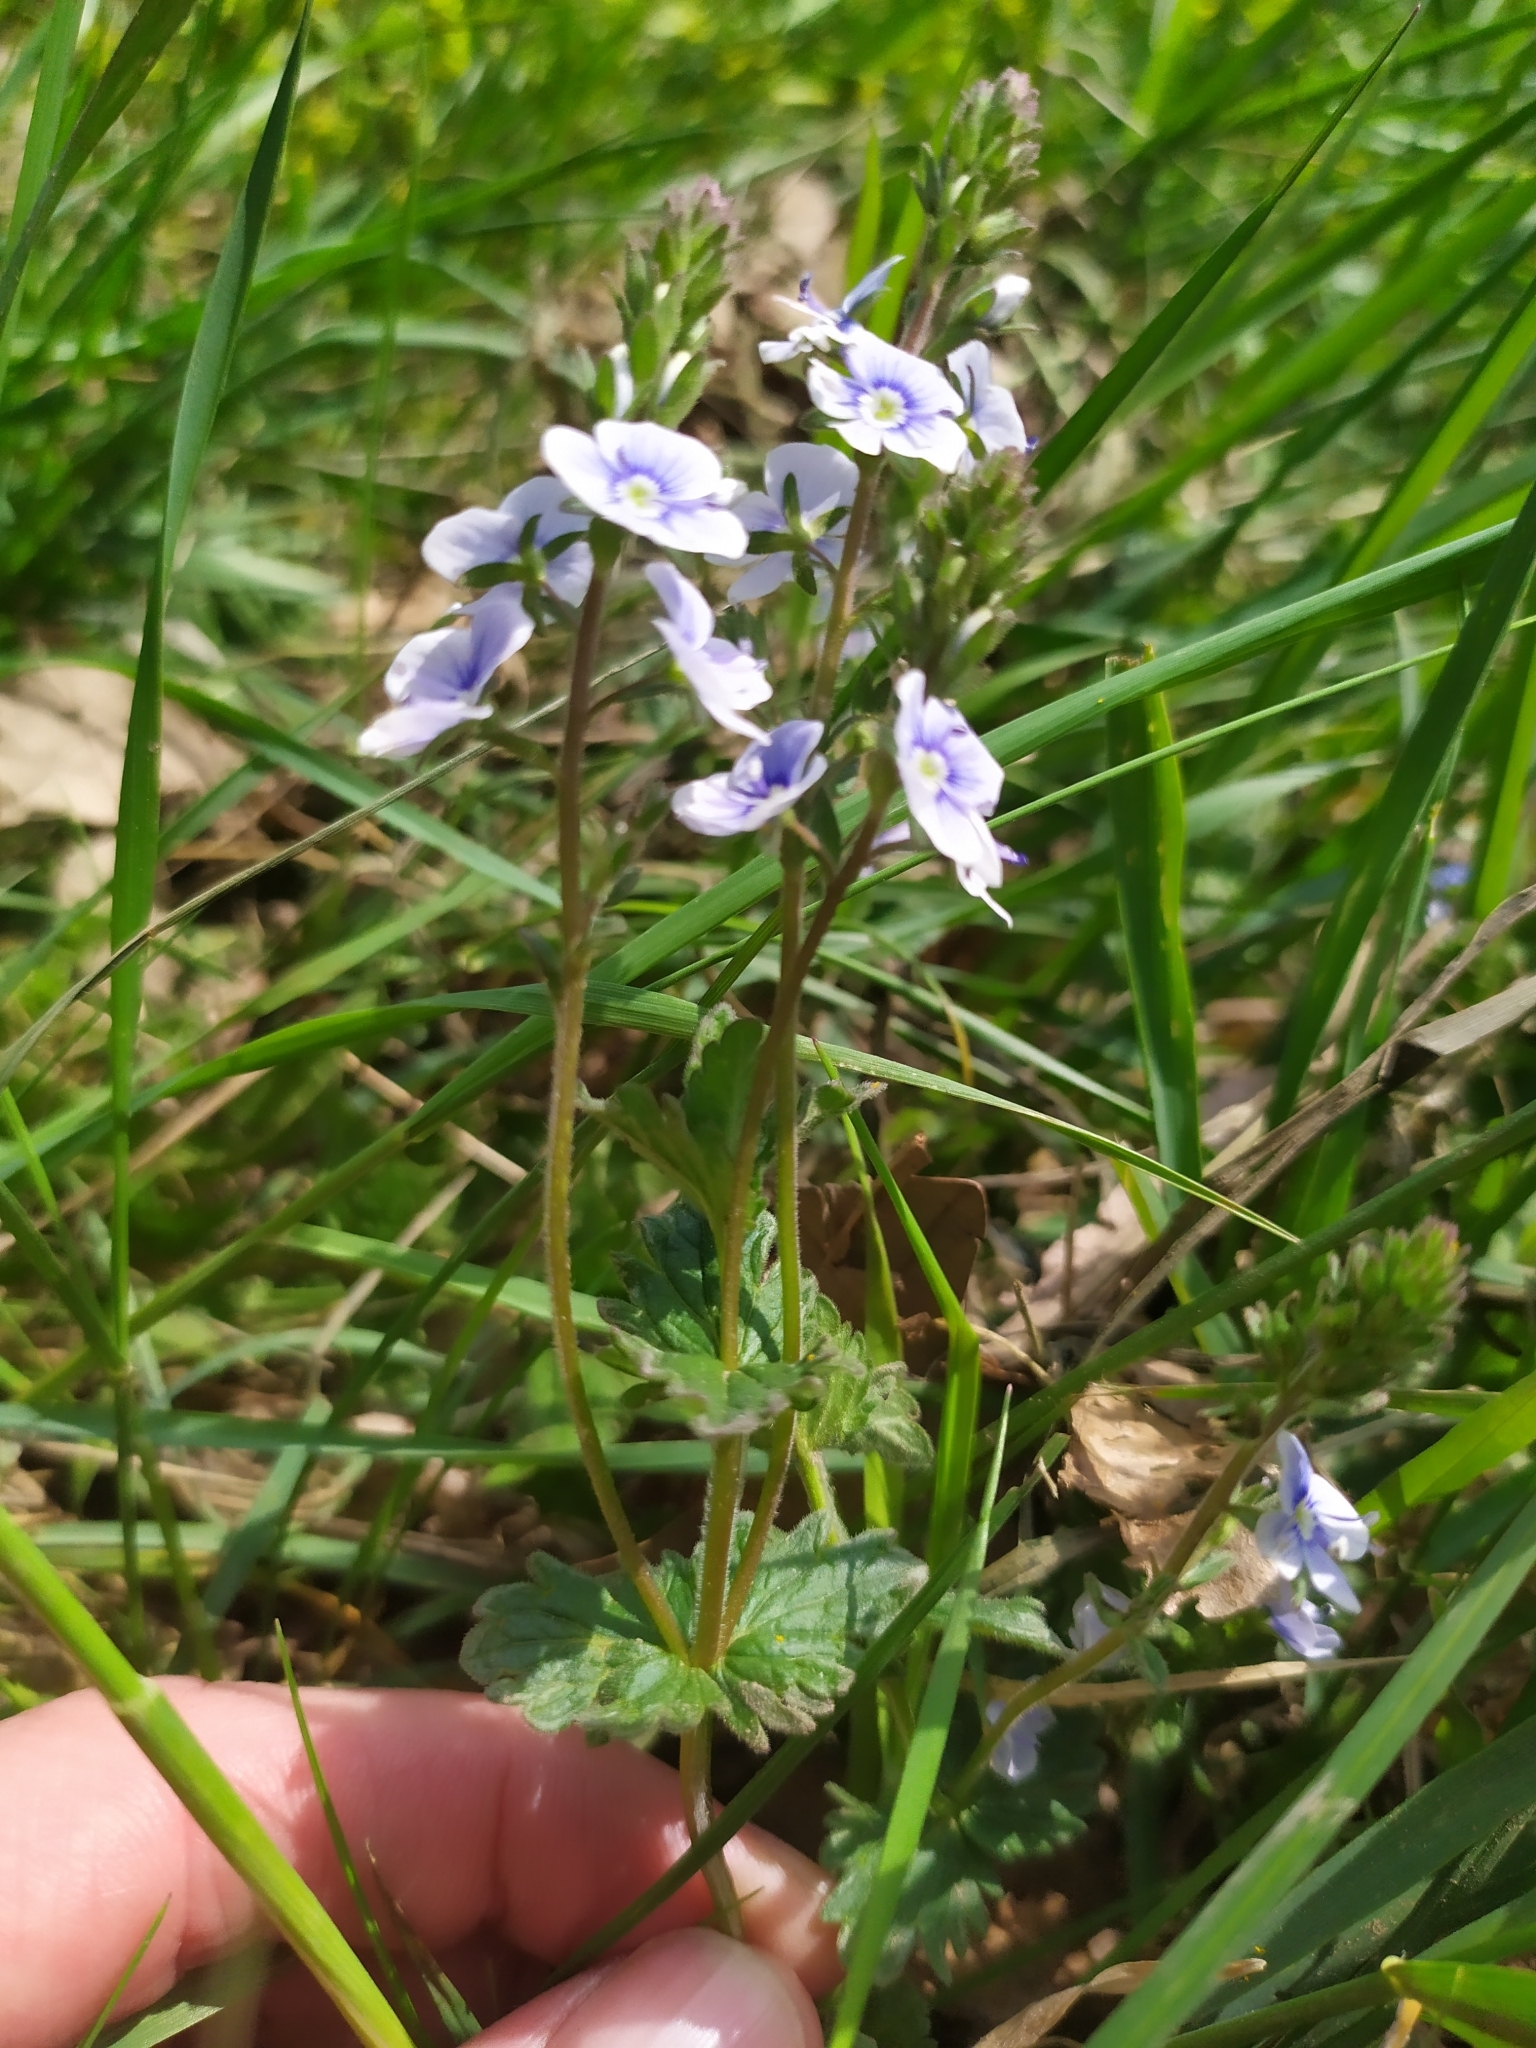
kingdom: Plantae
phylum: Tracheophyta
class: Magnoliopsida
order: Lamiales
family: Plantaginaceae
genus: Veronica
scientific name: Veronica vindobonensis
